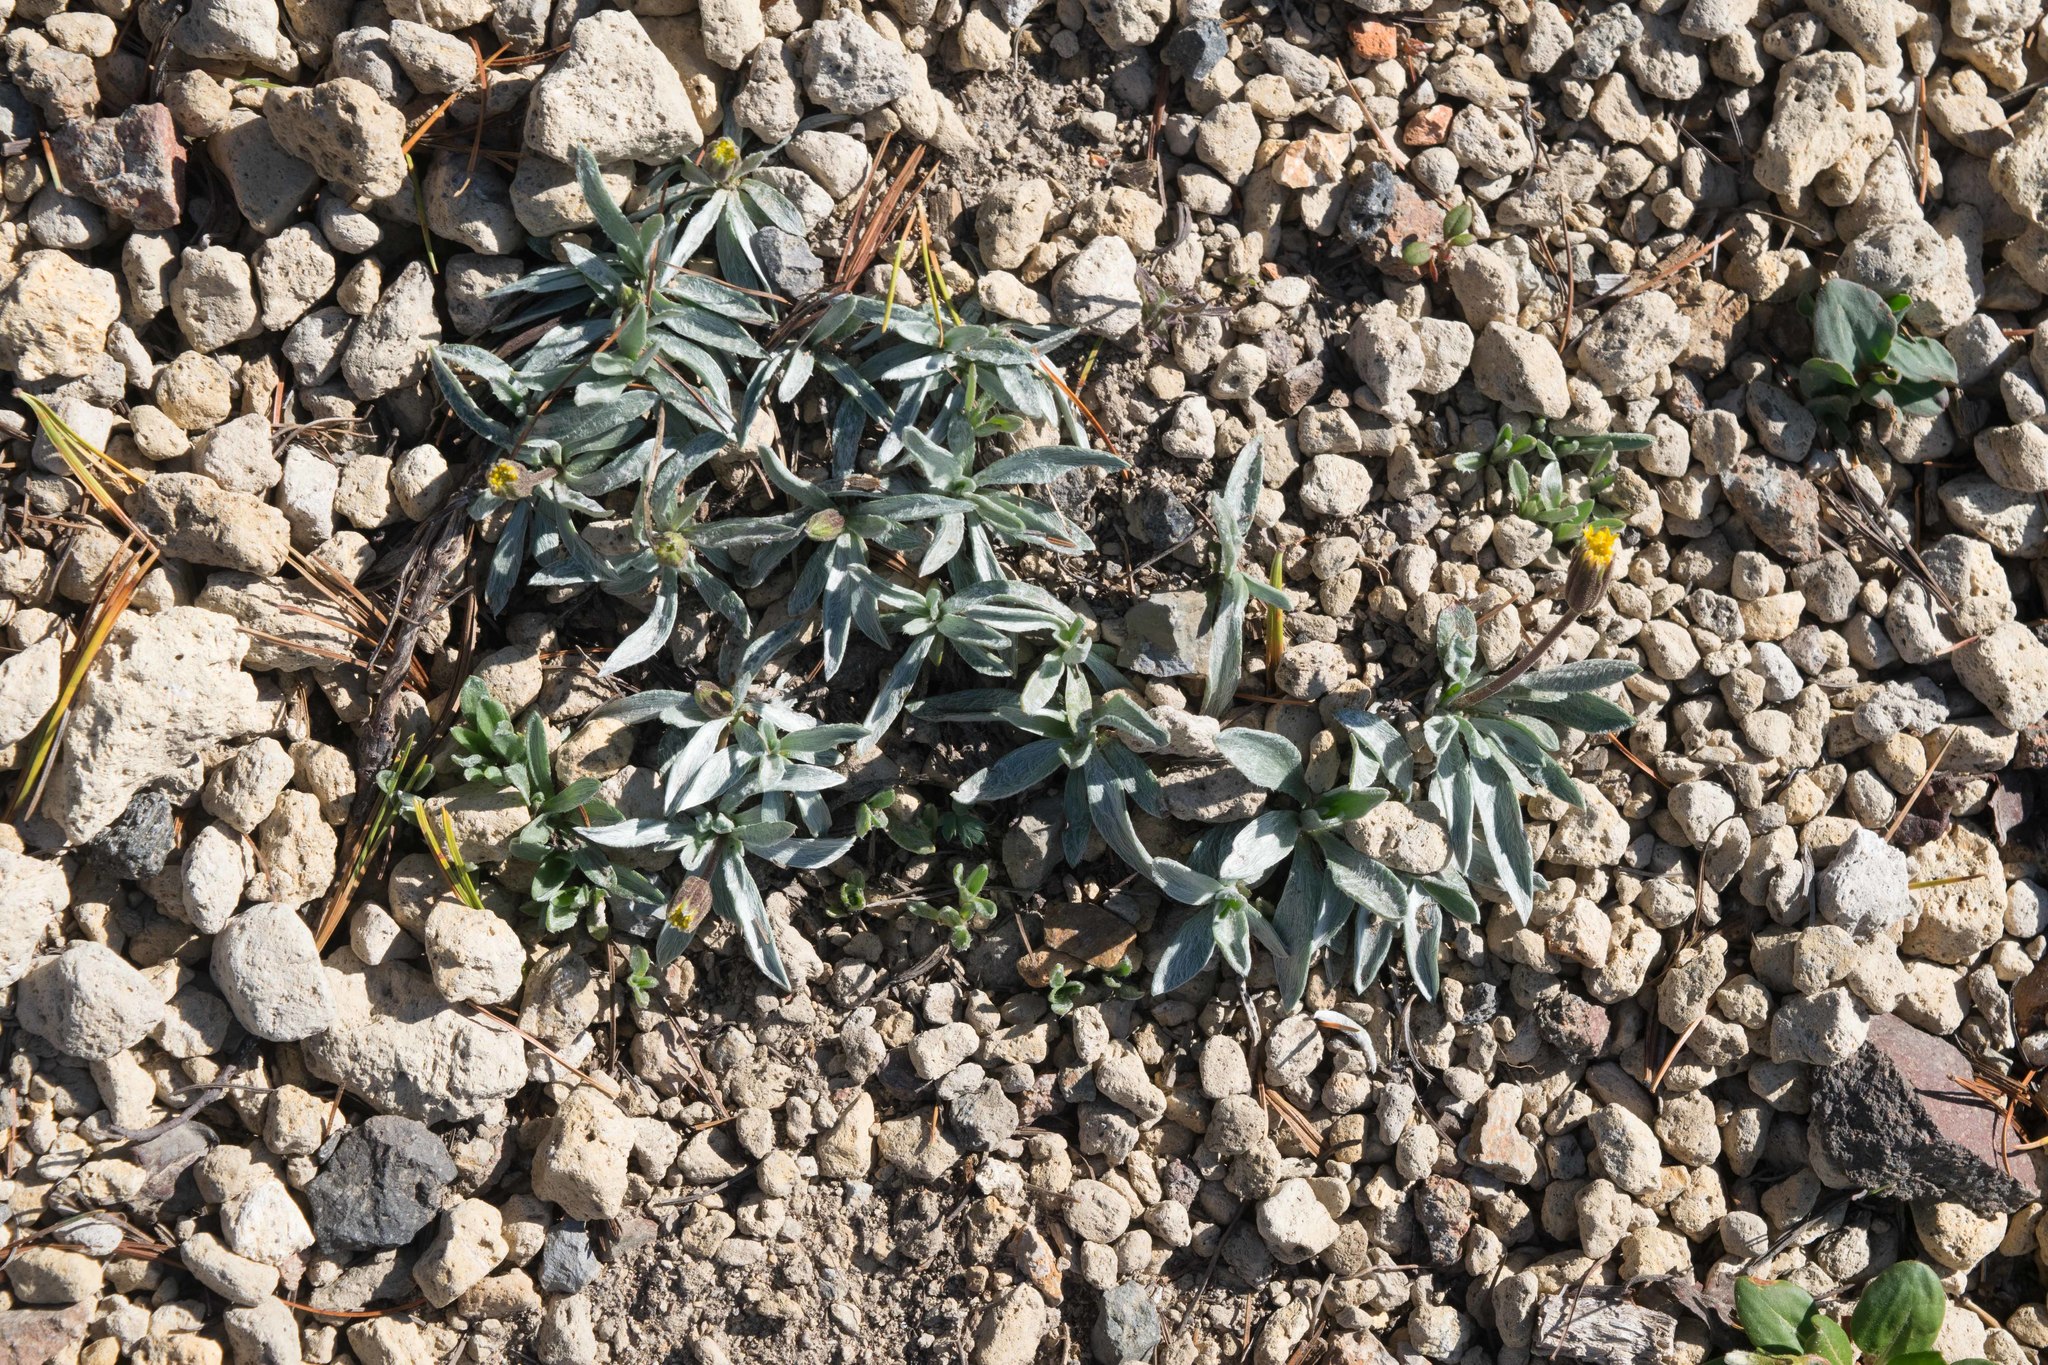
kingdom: Plantae
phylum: Tracheophyta
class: Magnoliopsida
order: Asterales
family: Asteraceae
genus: Raillardella
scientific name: Raillardella argentea
